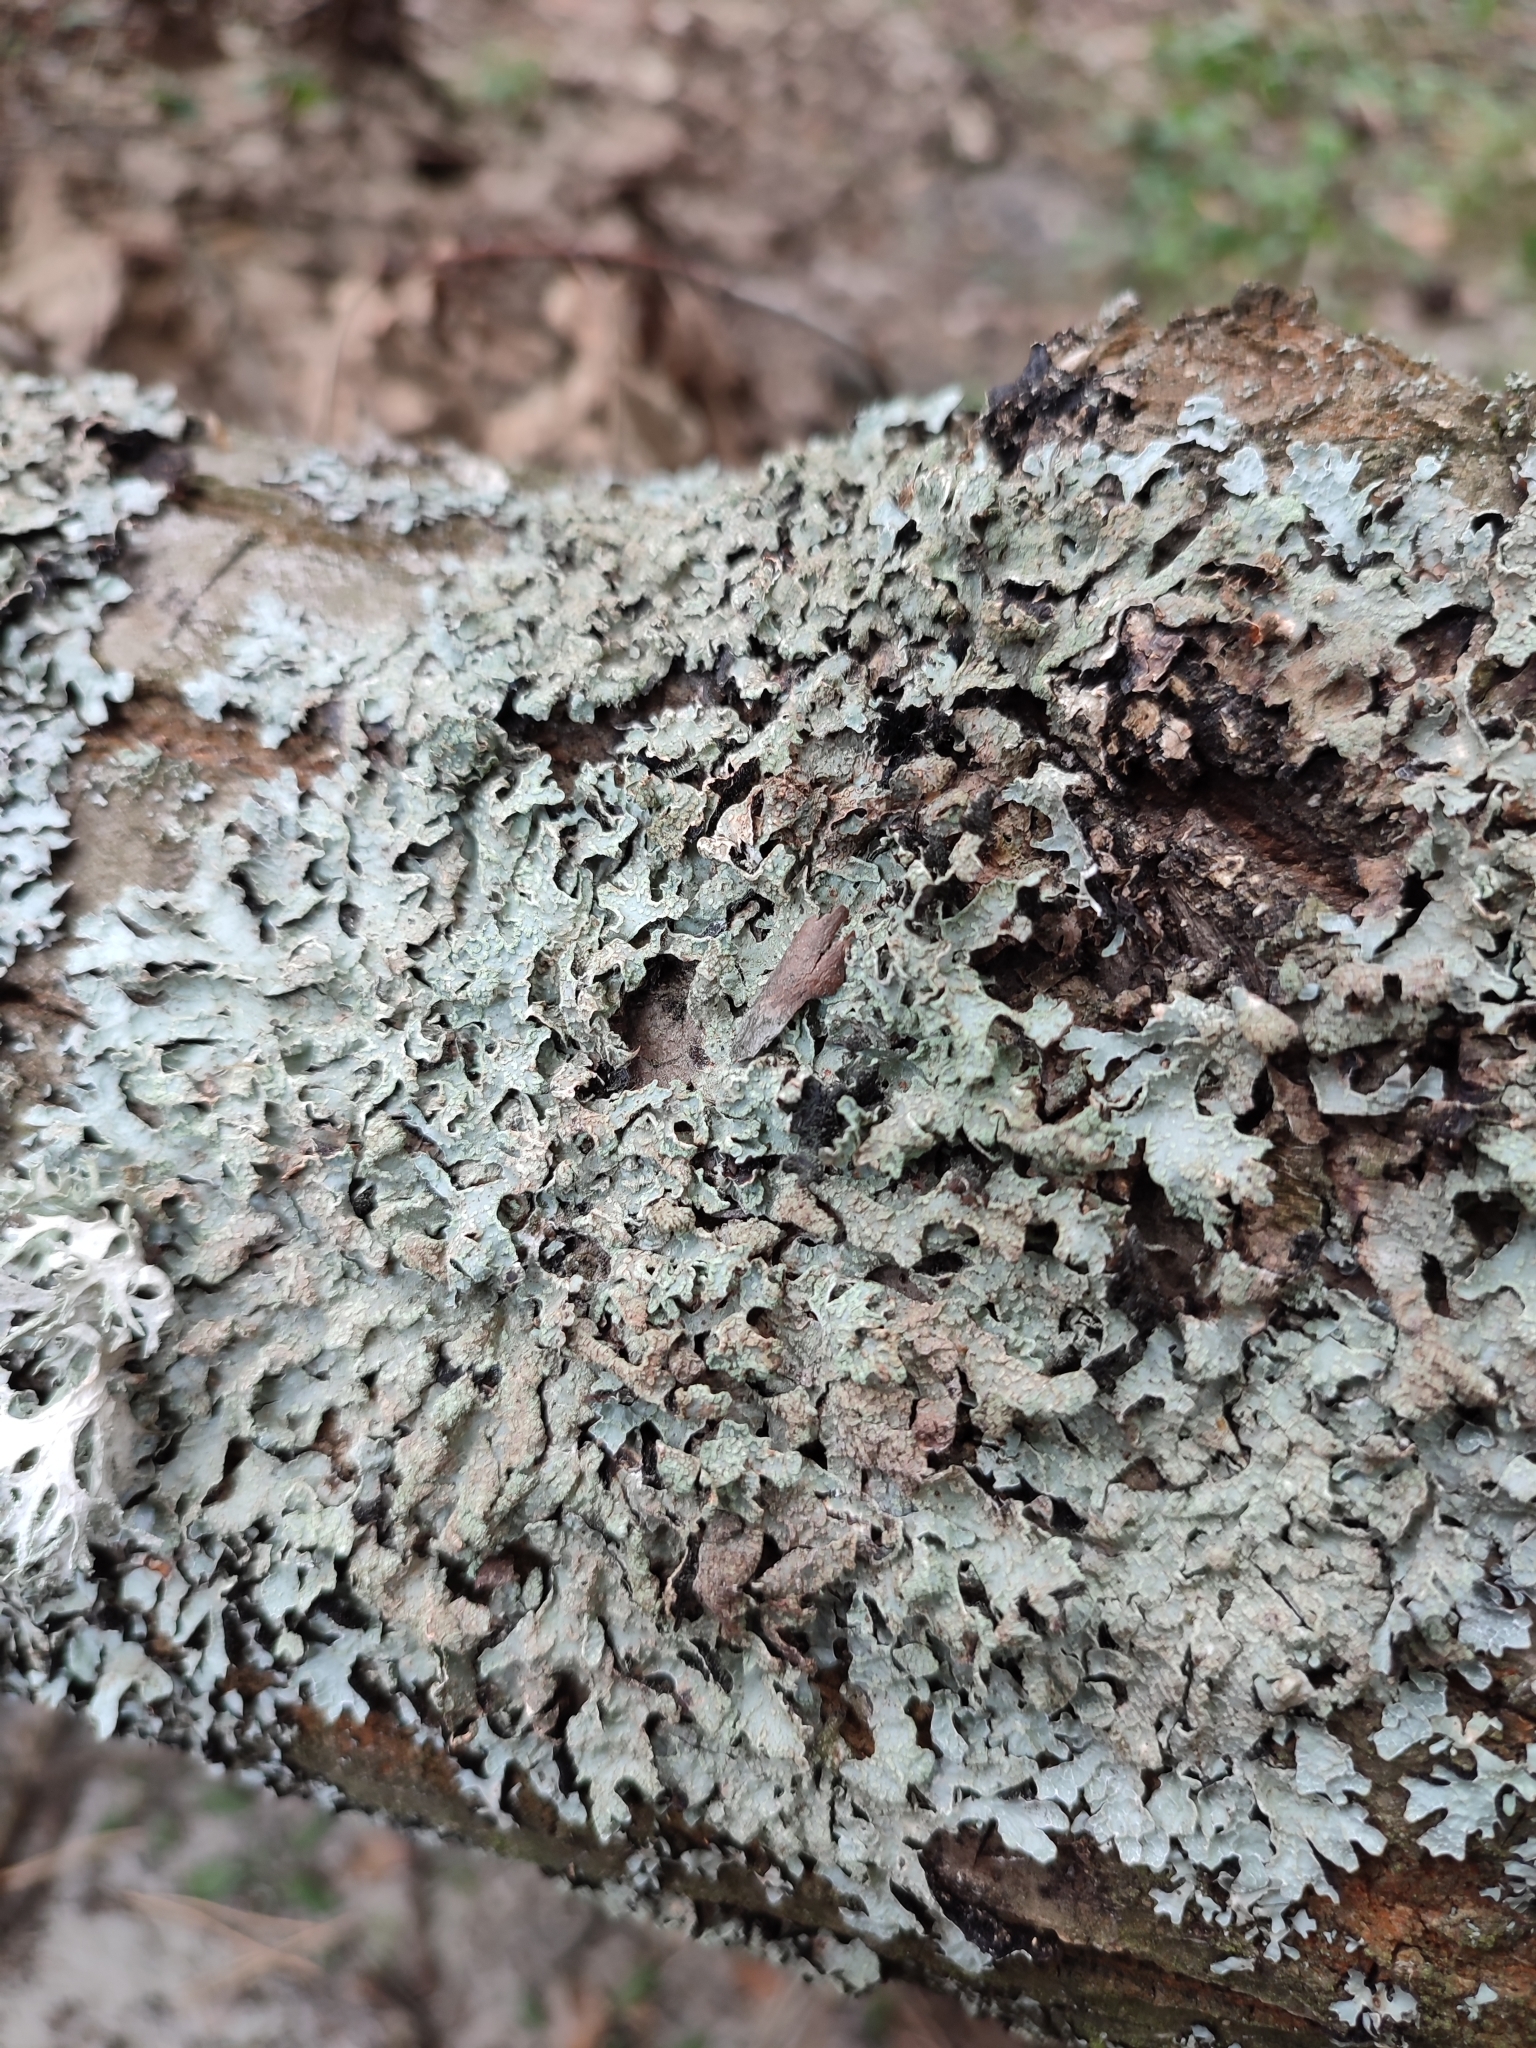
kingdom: Fungi
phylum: Ascomycota
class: Lecanoromycetes
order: Lecanorales
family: Parmeliaceae
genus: Parmelia
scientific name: Parmelia sulcata
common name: Netted shield lichen
